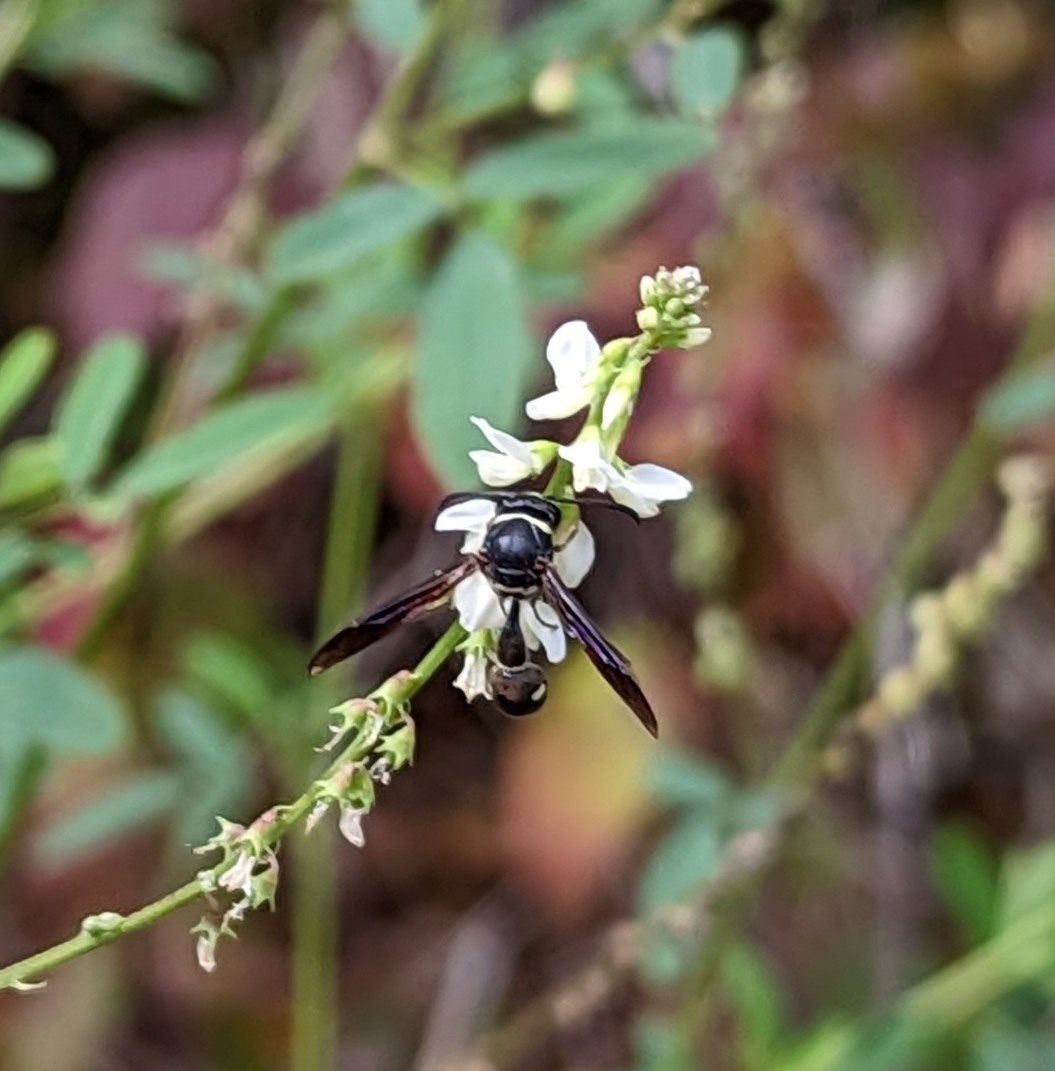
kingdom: Animalia
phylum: Arthropoda
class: Insecta
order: Hymenoptera
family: Vespidae
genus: Eumenes
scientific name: Eumenes fraternus
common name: Fraternal potter wasp
